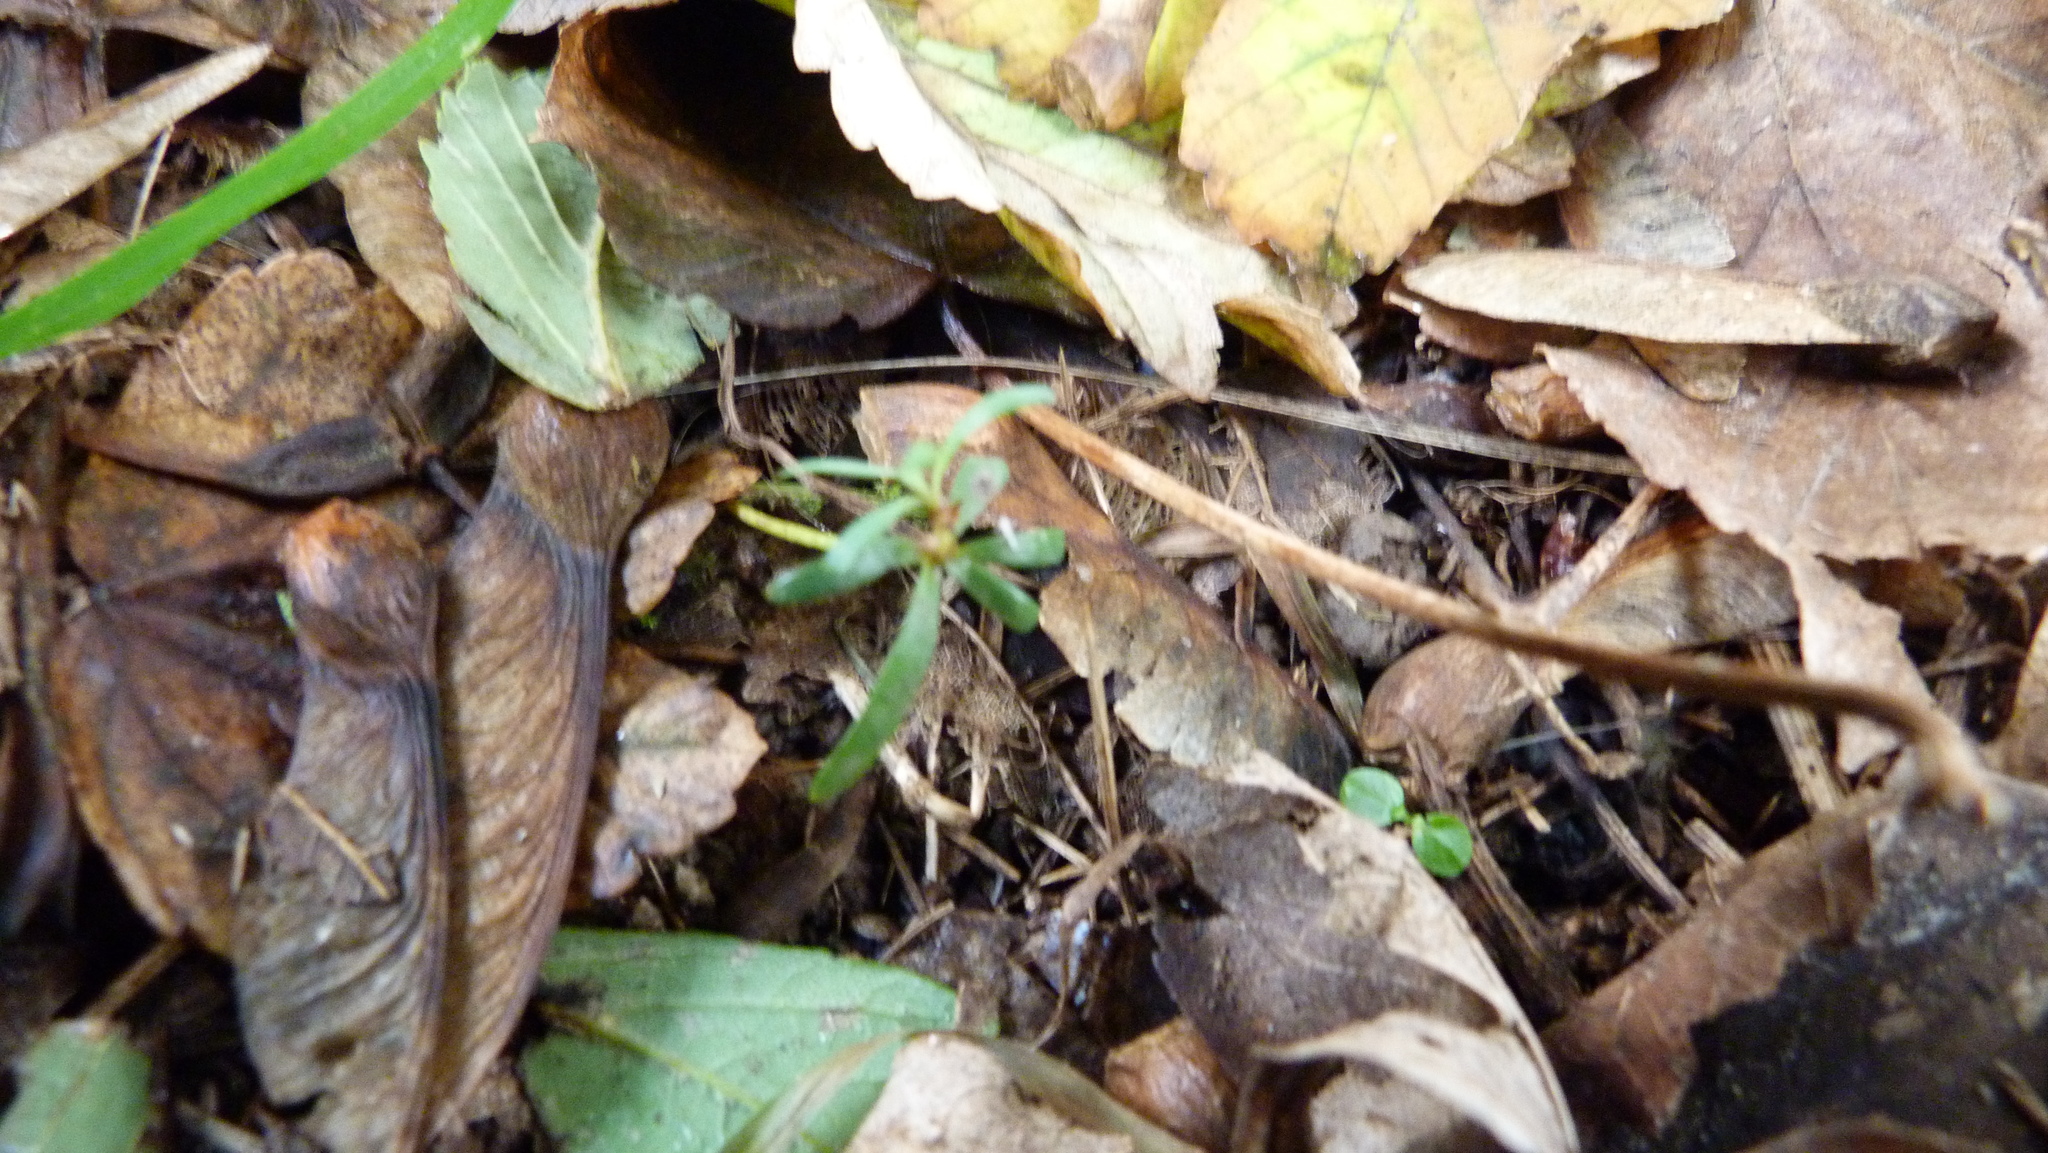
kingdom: Plantae
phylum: Tracheophyta
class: Pinopsida
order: Pinales
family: Podocarpaceae
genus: Podocarpus
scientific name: Podocarpus totara
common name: Totara
